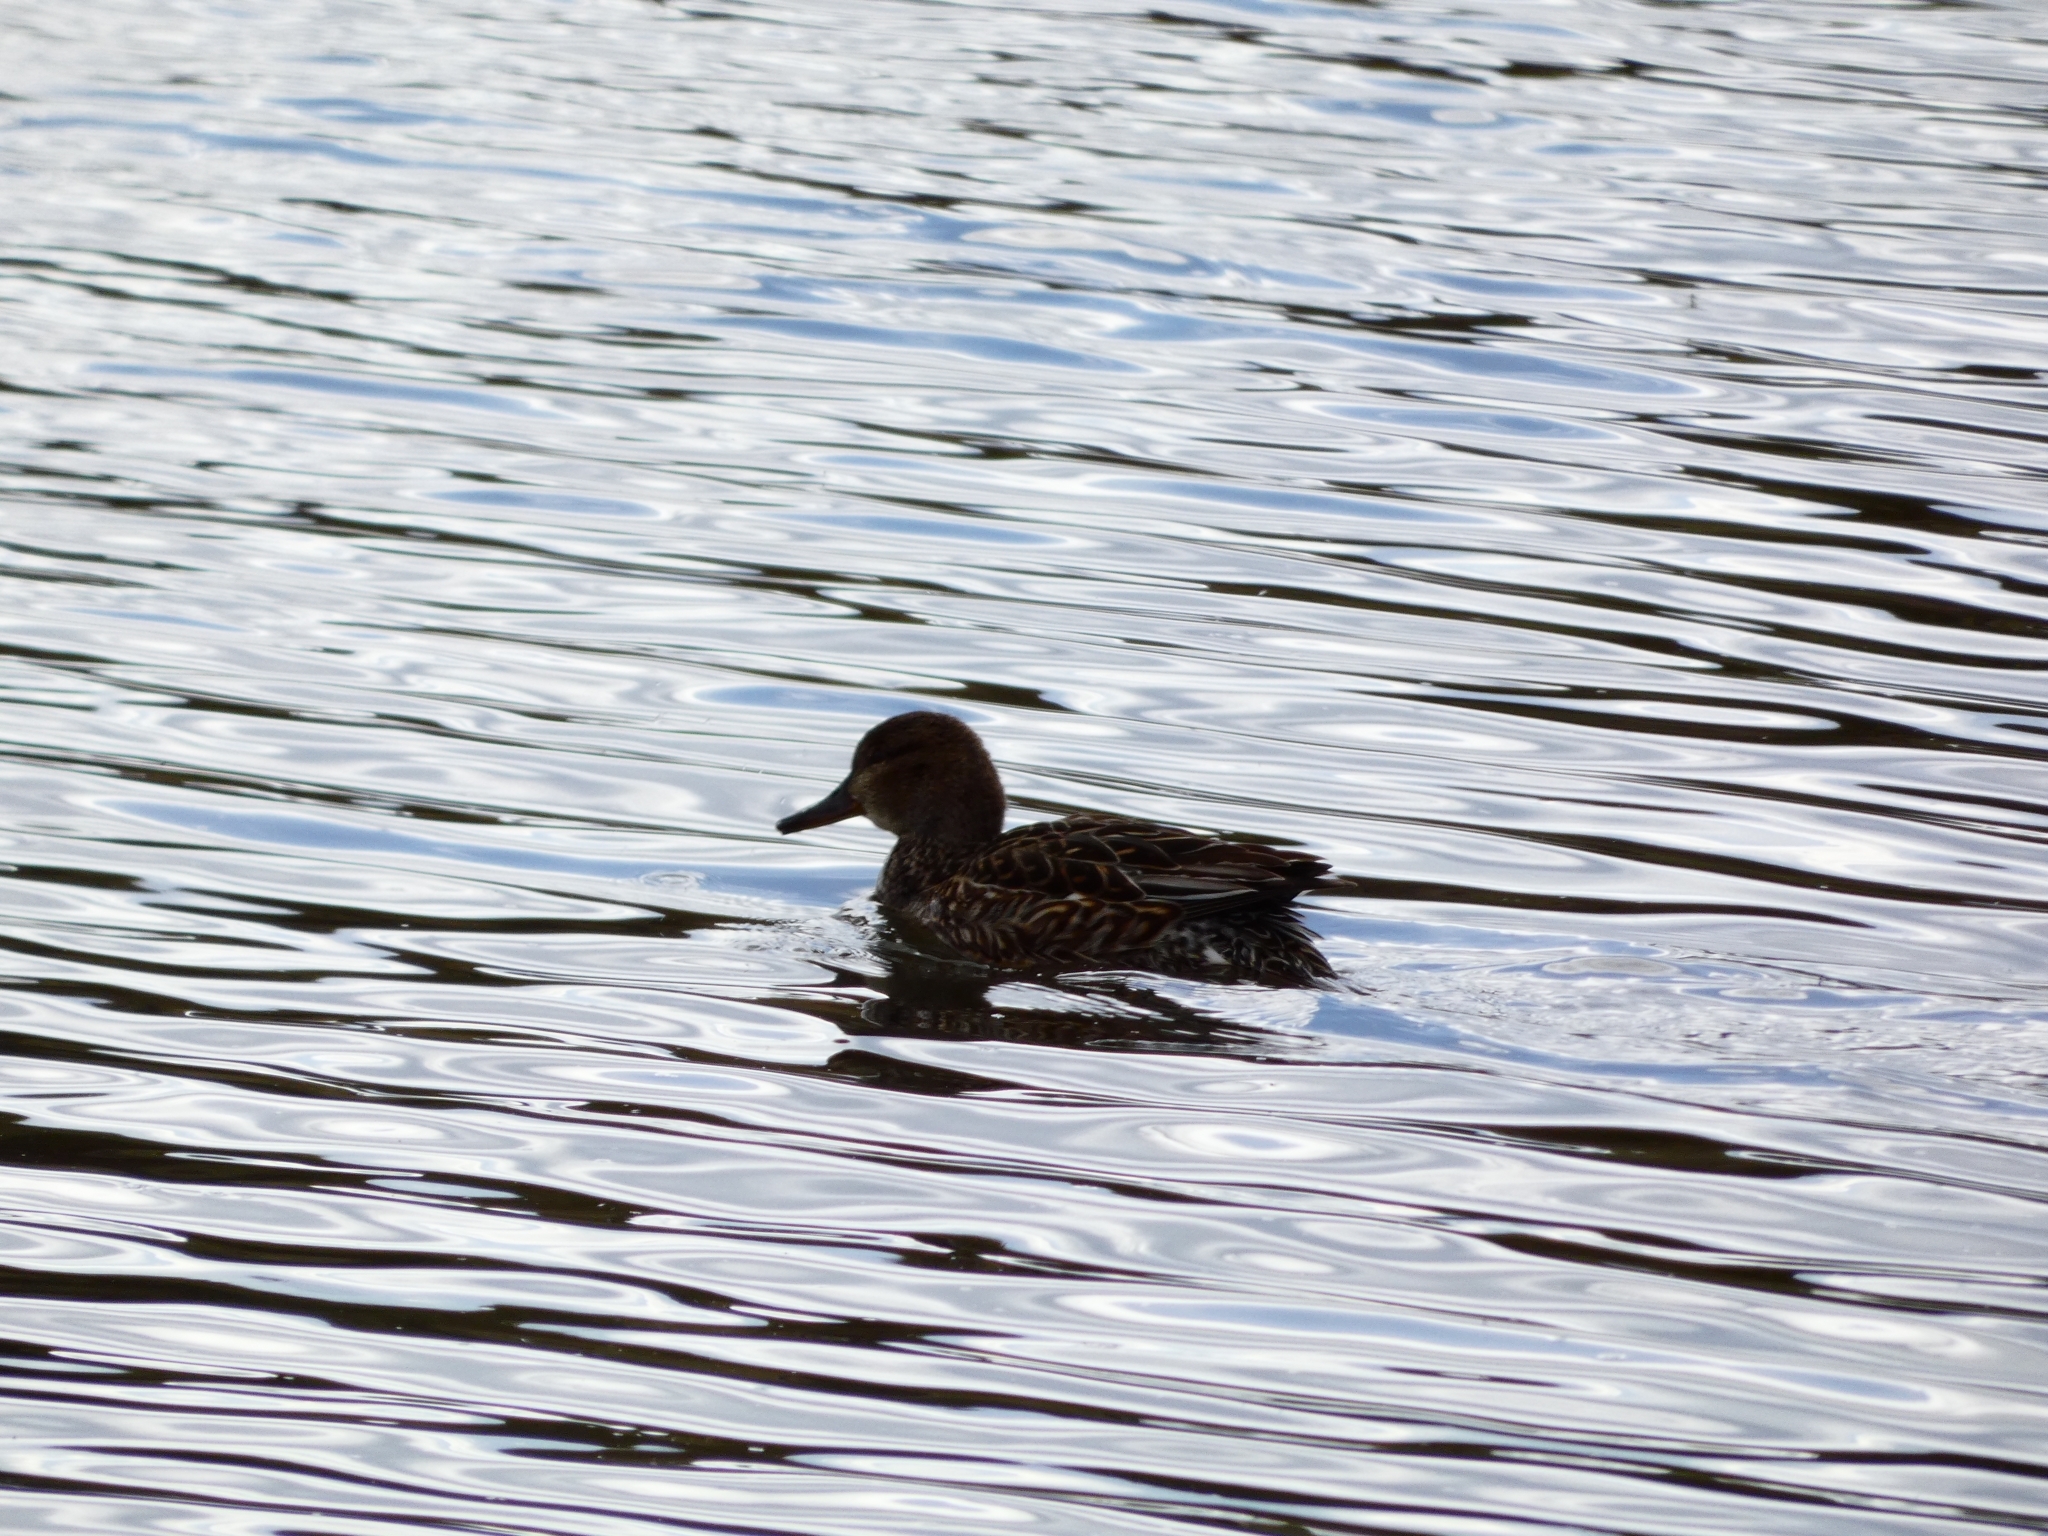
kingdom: Animalia
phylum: Chordata
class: Aves
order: Anseriformes
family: Anatidae
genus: Anas
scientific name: Anas crecca
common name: Eurasian teal
